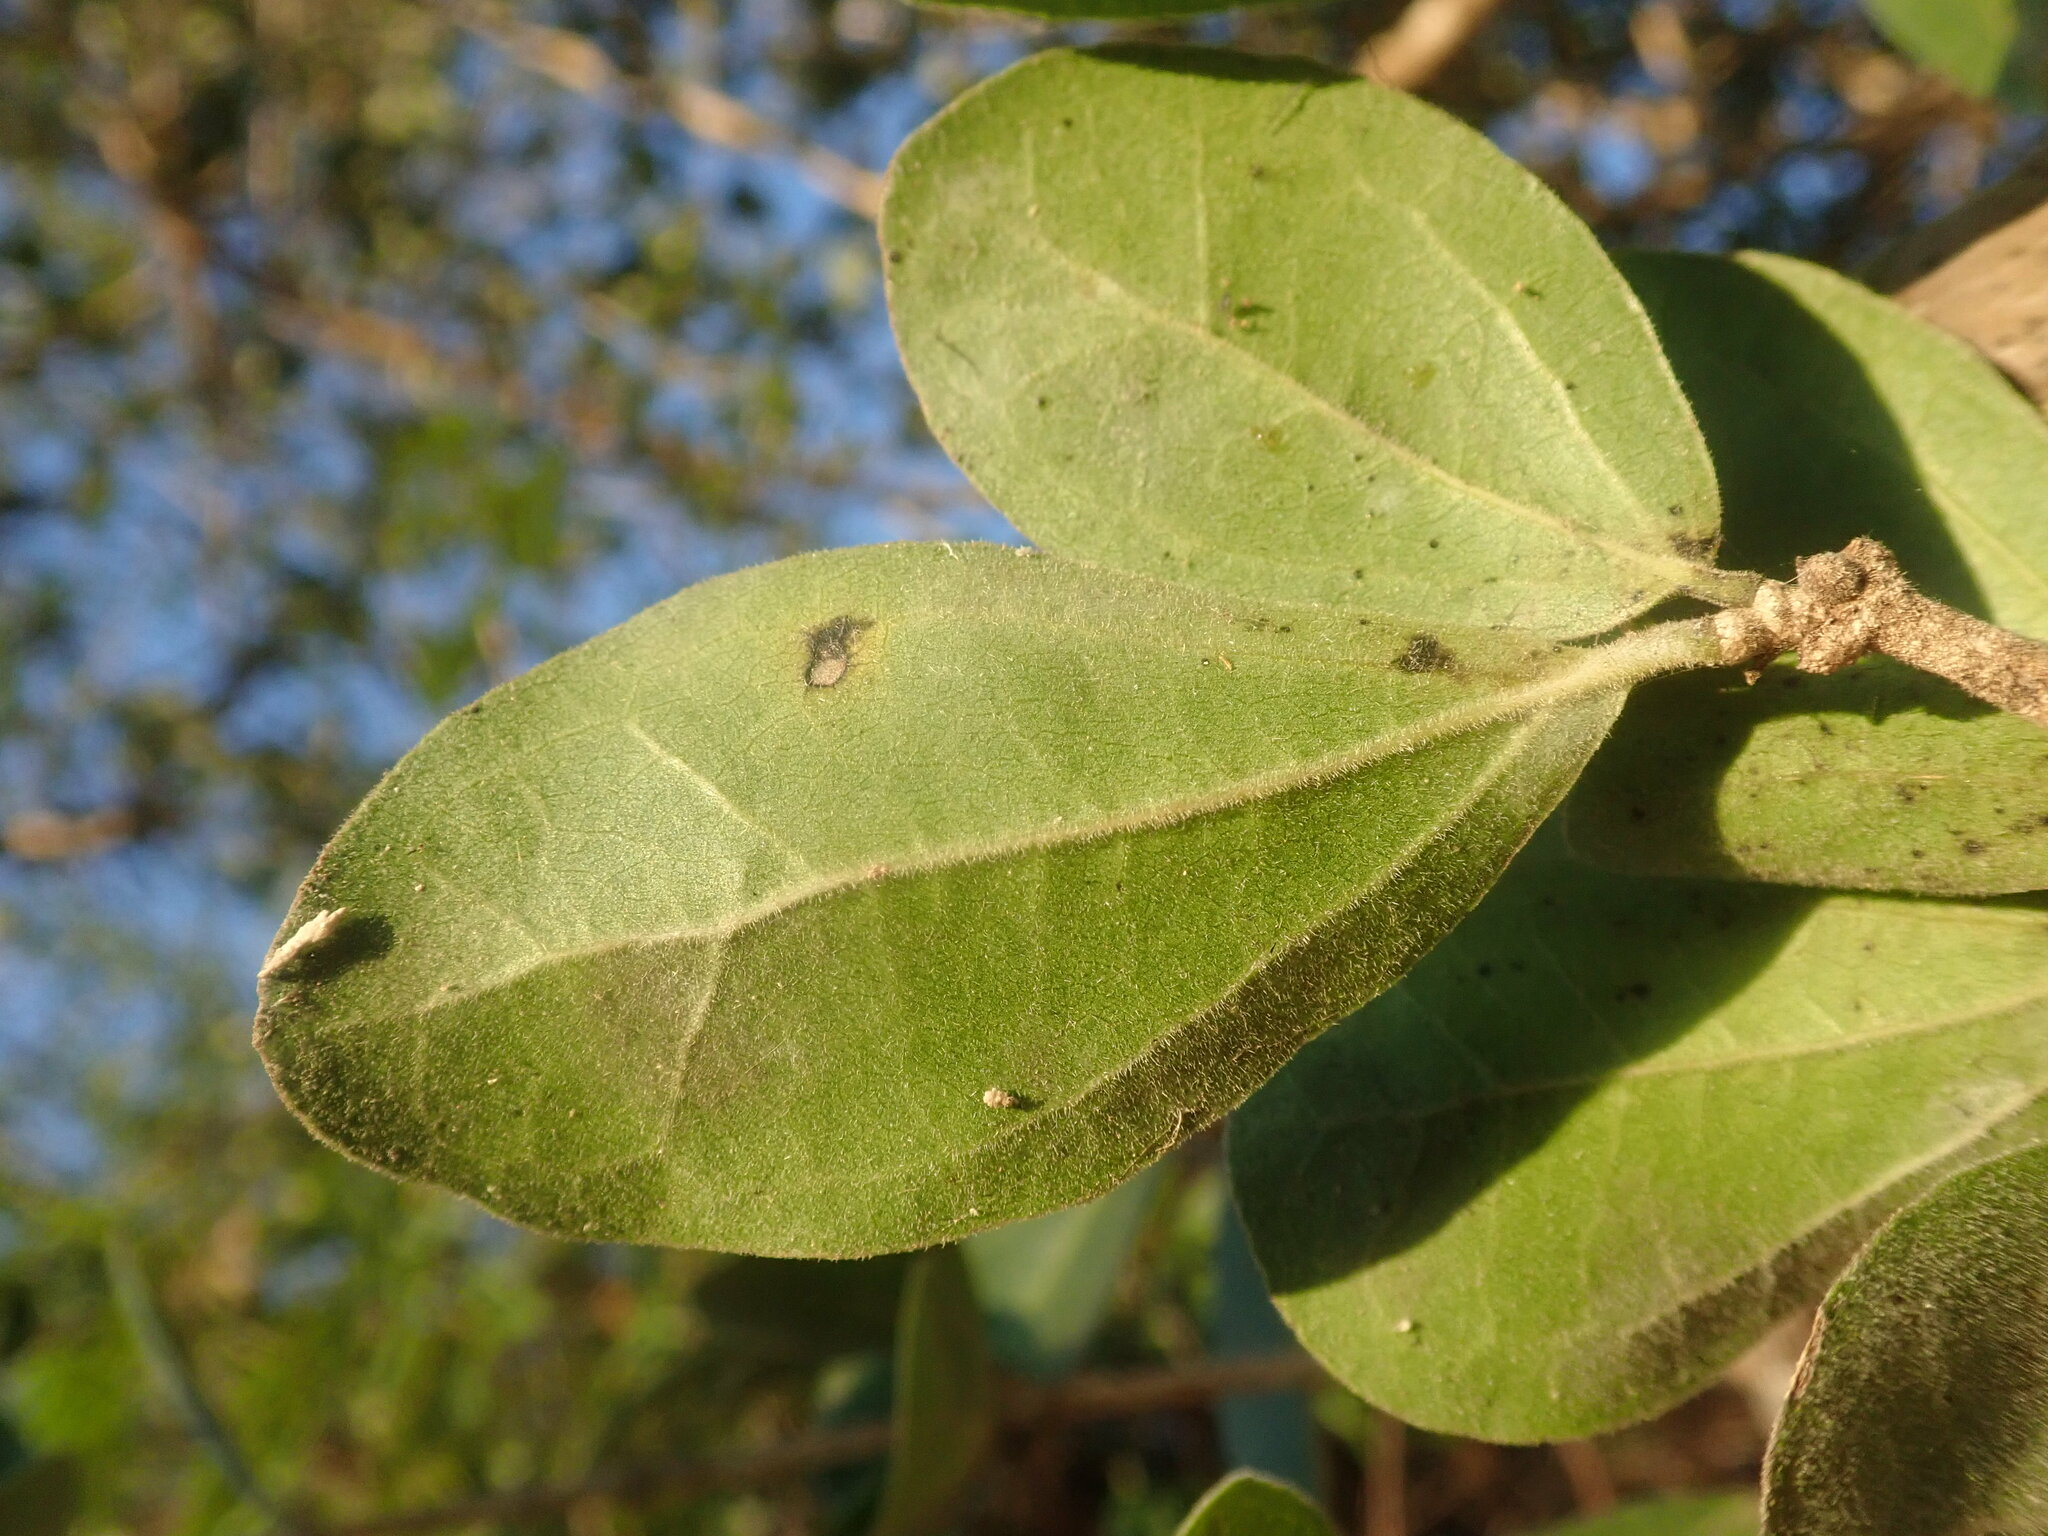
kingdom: Plantae
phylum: Tracheophyta
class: Magnoliopsida
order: Gentianales
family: Loganiaceae
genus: Strychnos
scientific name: Strychnos madagascariensis
